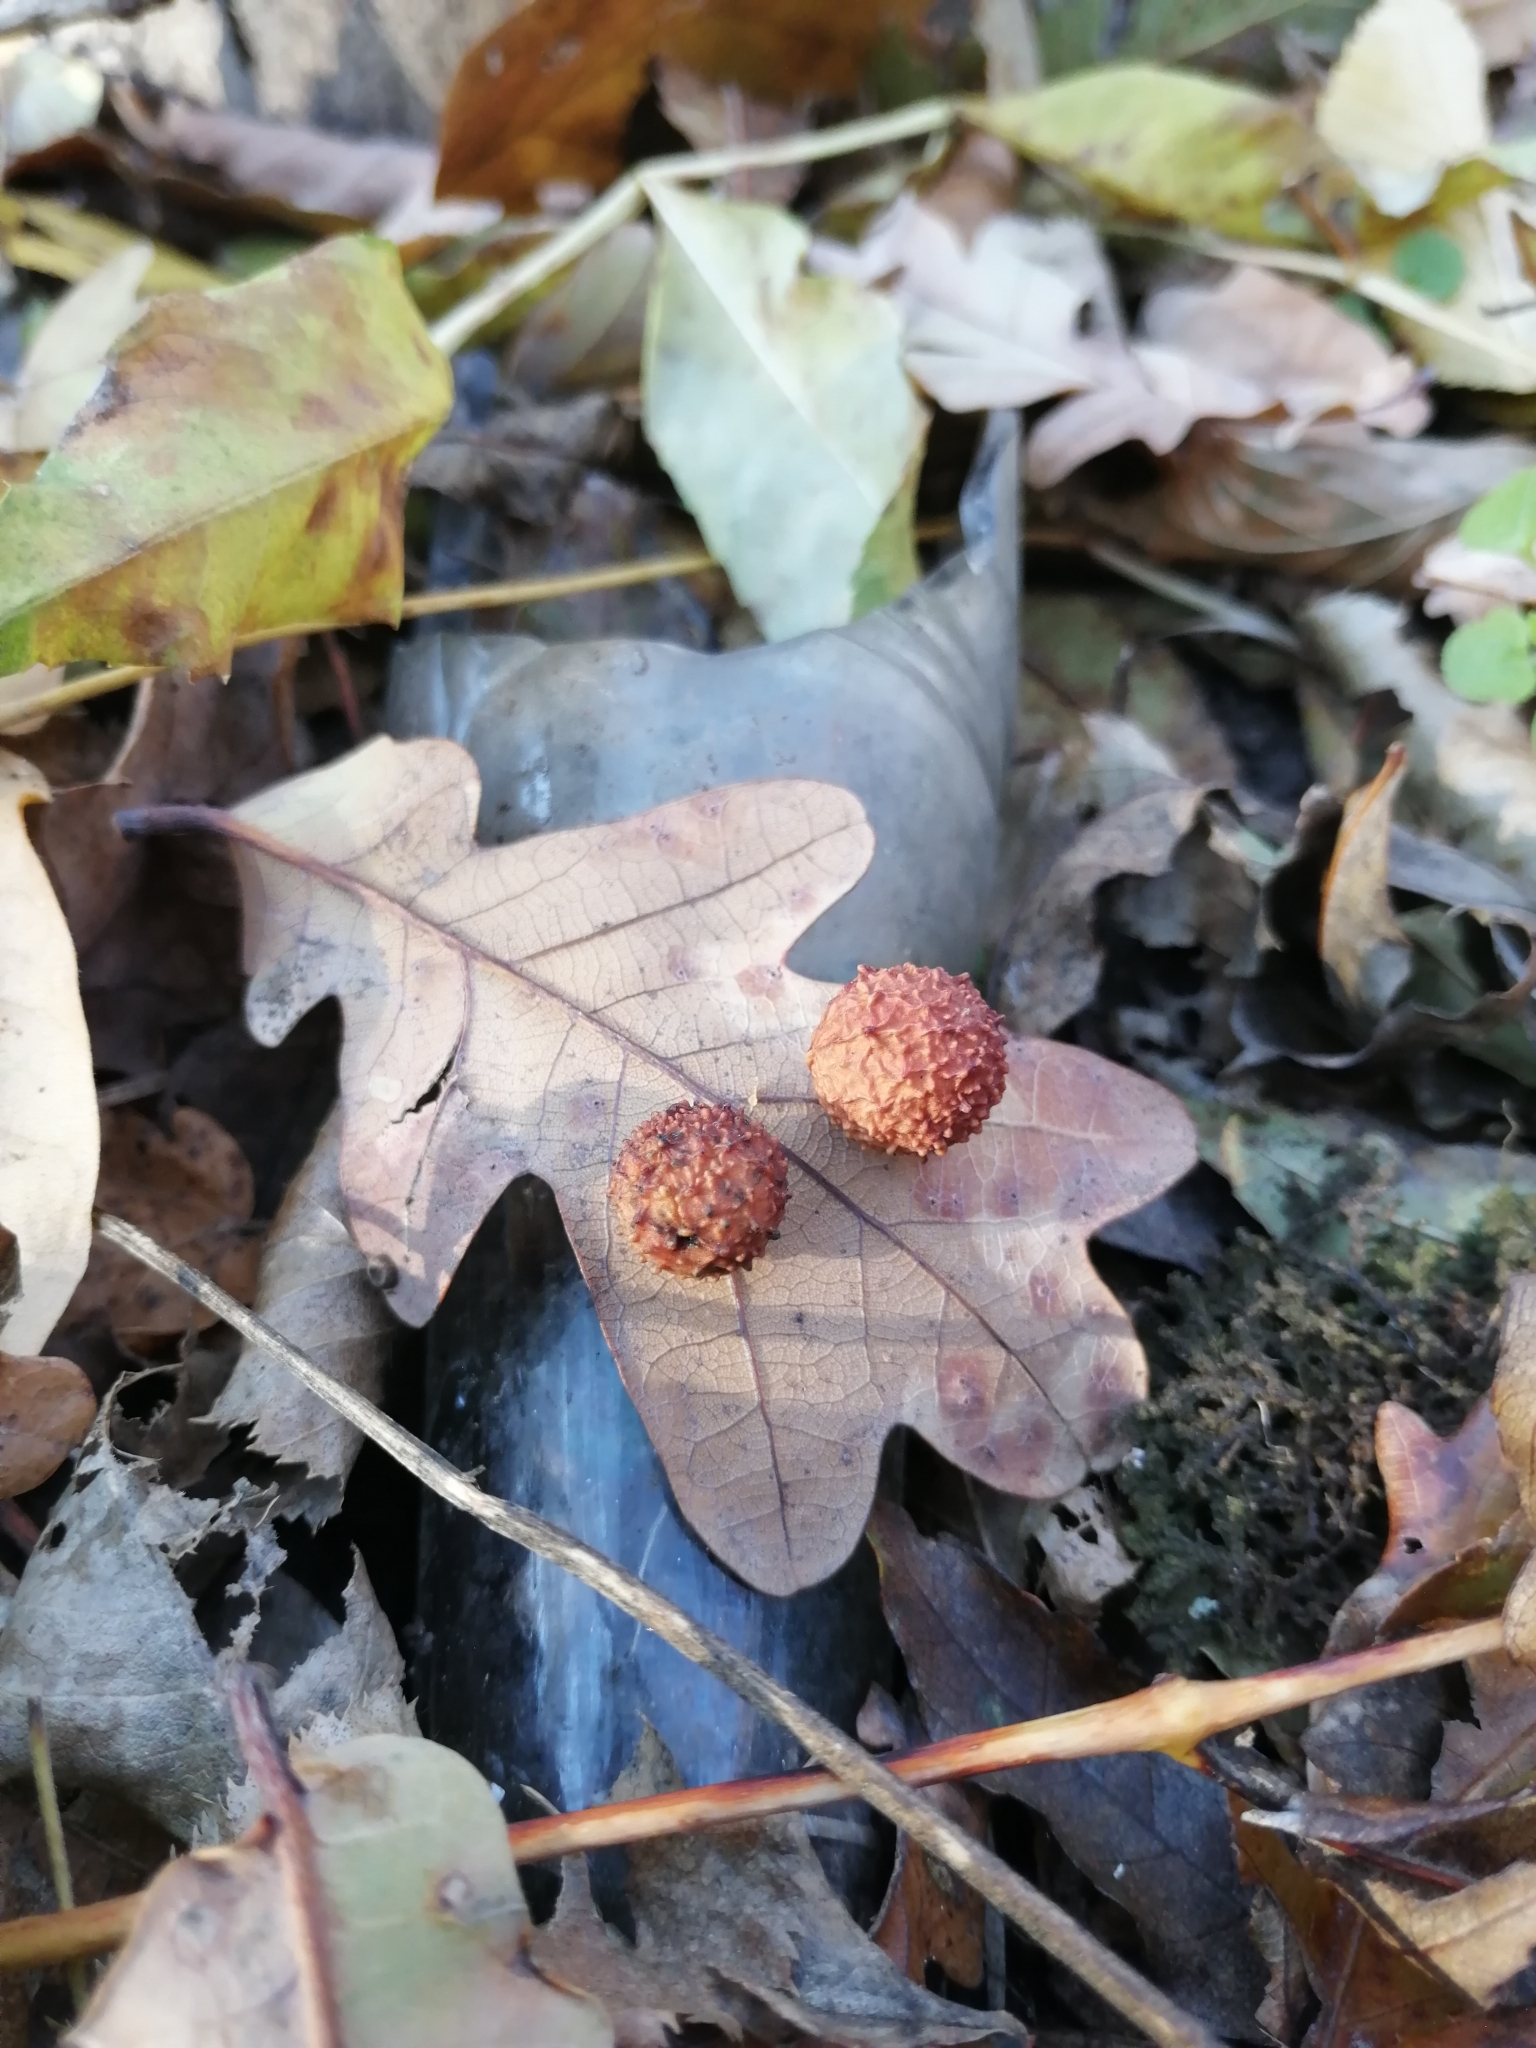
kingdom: Animalia
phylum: Arthropoda
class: Insecta
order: Hymenoptera
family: Cynipidae
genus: Cynips
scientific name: Cynips quercusfolii
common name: Cherry gall
